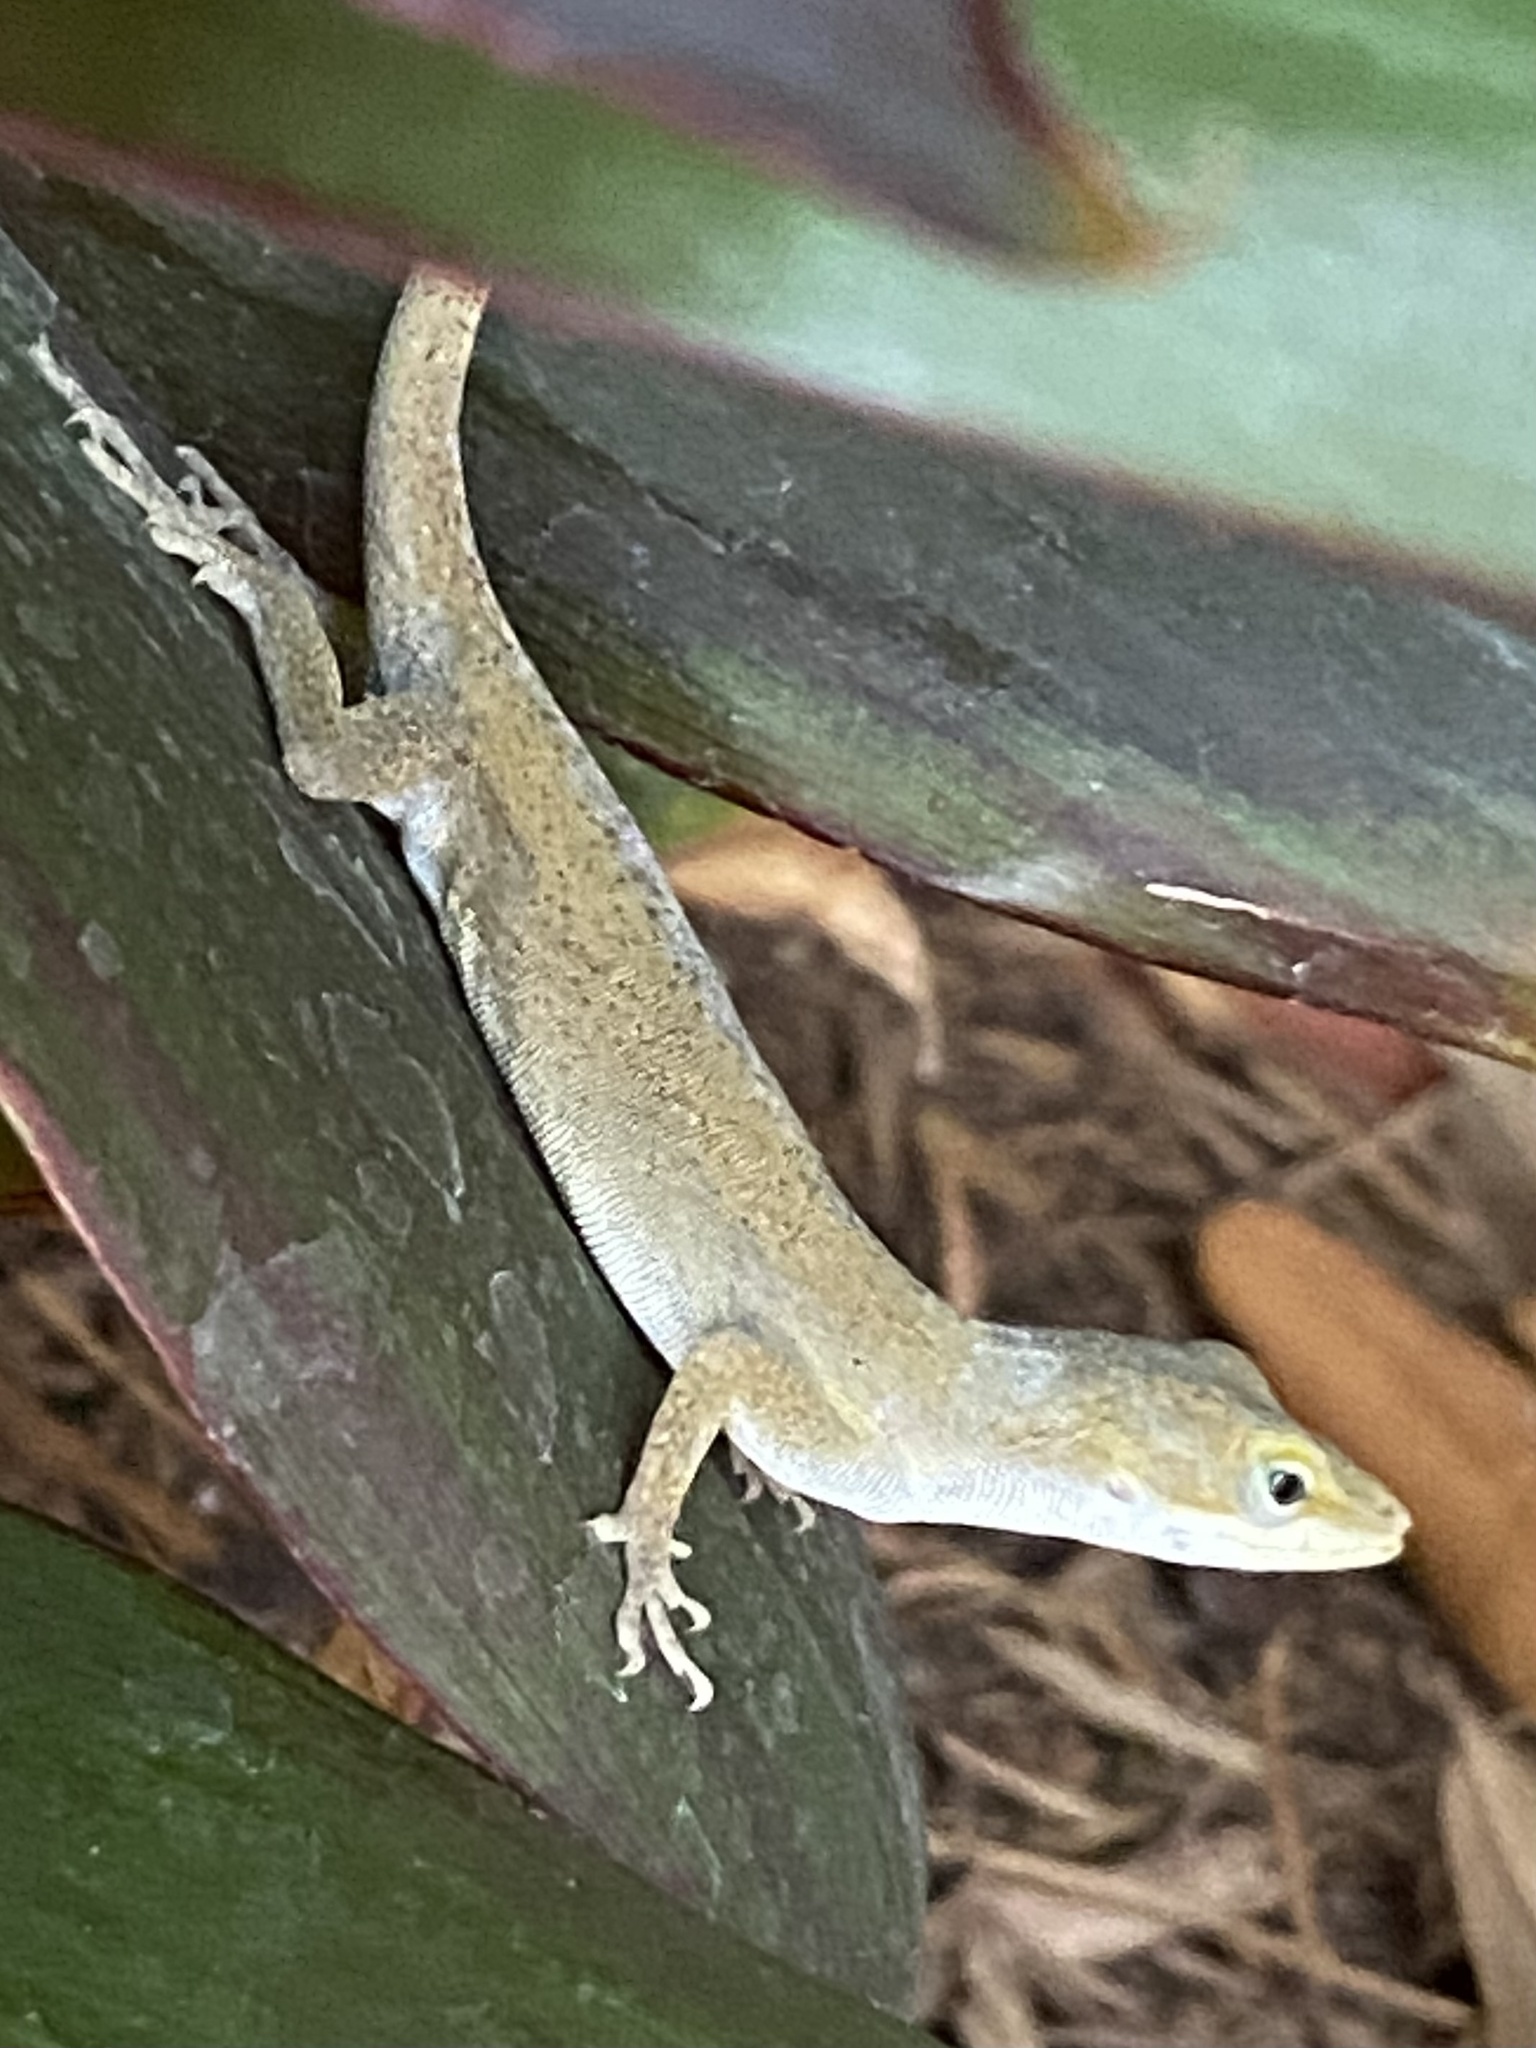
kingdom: Animalia
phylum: Chordata
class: Squamata
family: Dactyloidae
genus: Anolis
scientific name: Anolis carolinensis
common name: Green anole
